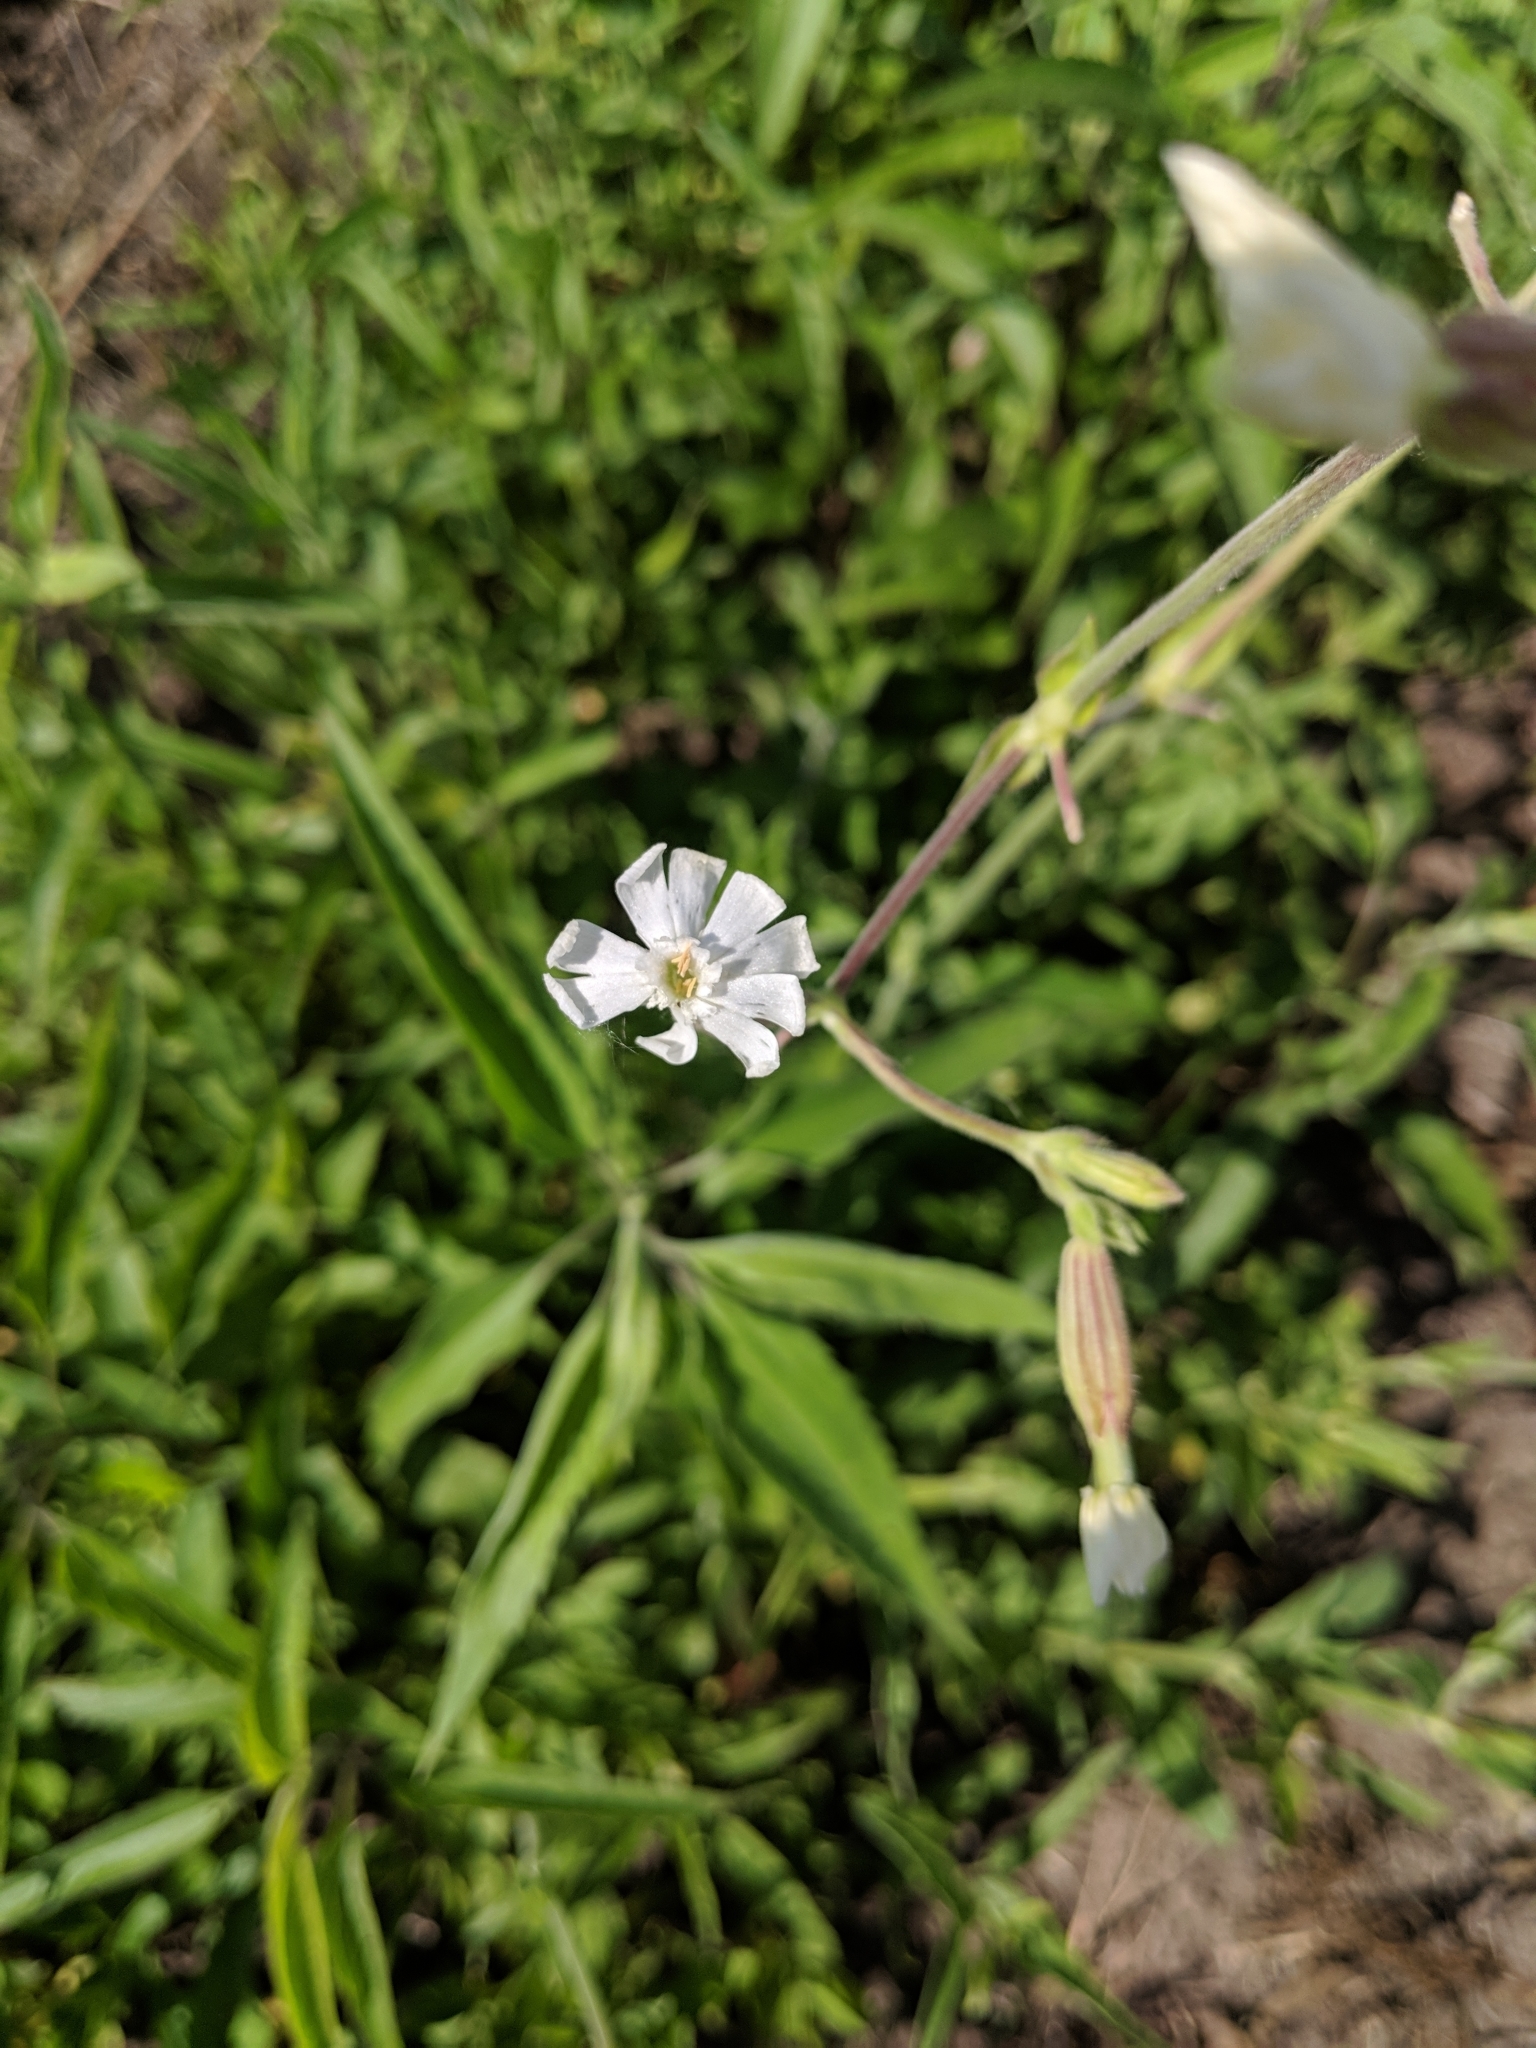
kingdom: Plantae
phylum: Tracheophyta
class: Magnoliopsida
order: Caryophyllales
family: Caryophyllaceae
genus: Silene
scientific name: Silene latifolia
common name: White campion
